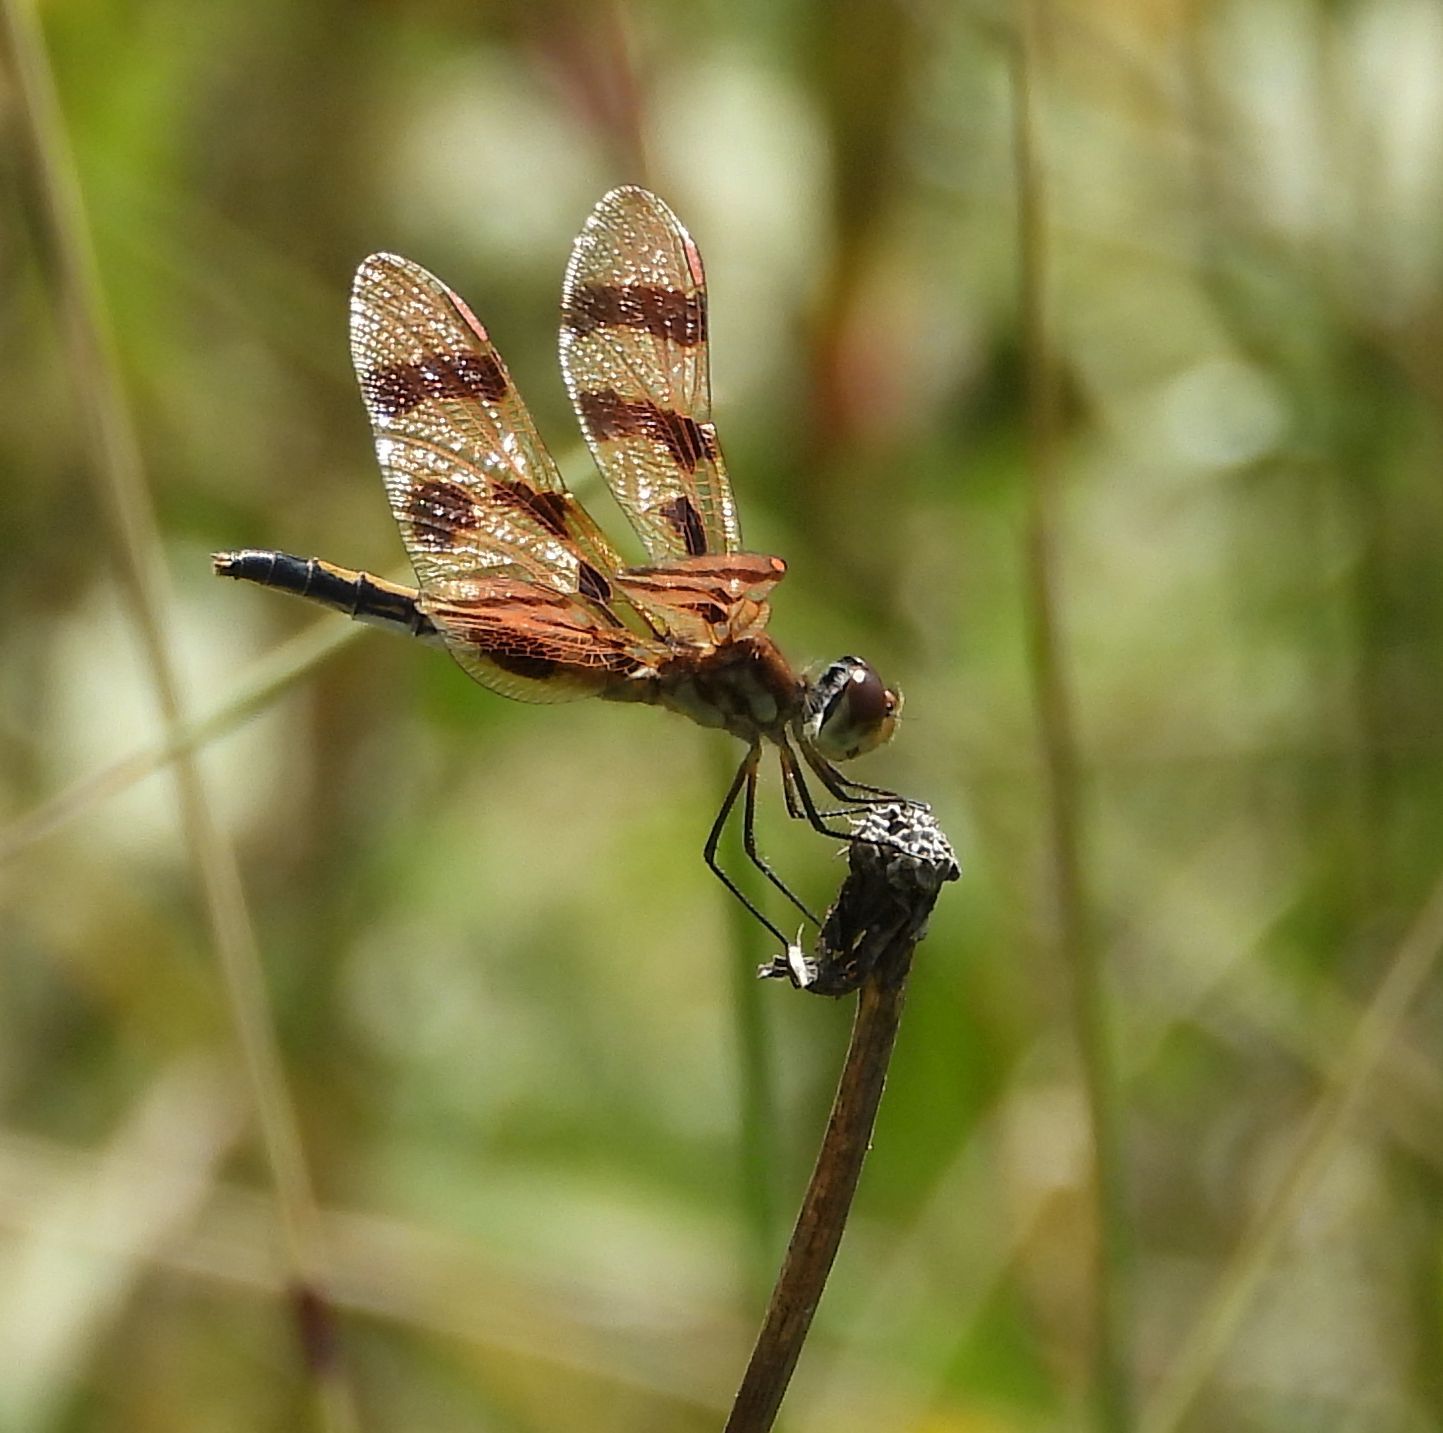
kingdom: Animalia
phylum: Arthropoda
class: Insecta
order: Odonata
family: Libellulidae
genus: Celithemis
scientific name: Celithemis eponina
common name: Halloween pennant
